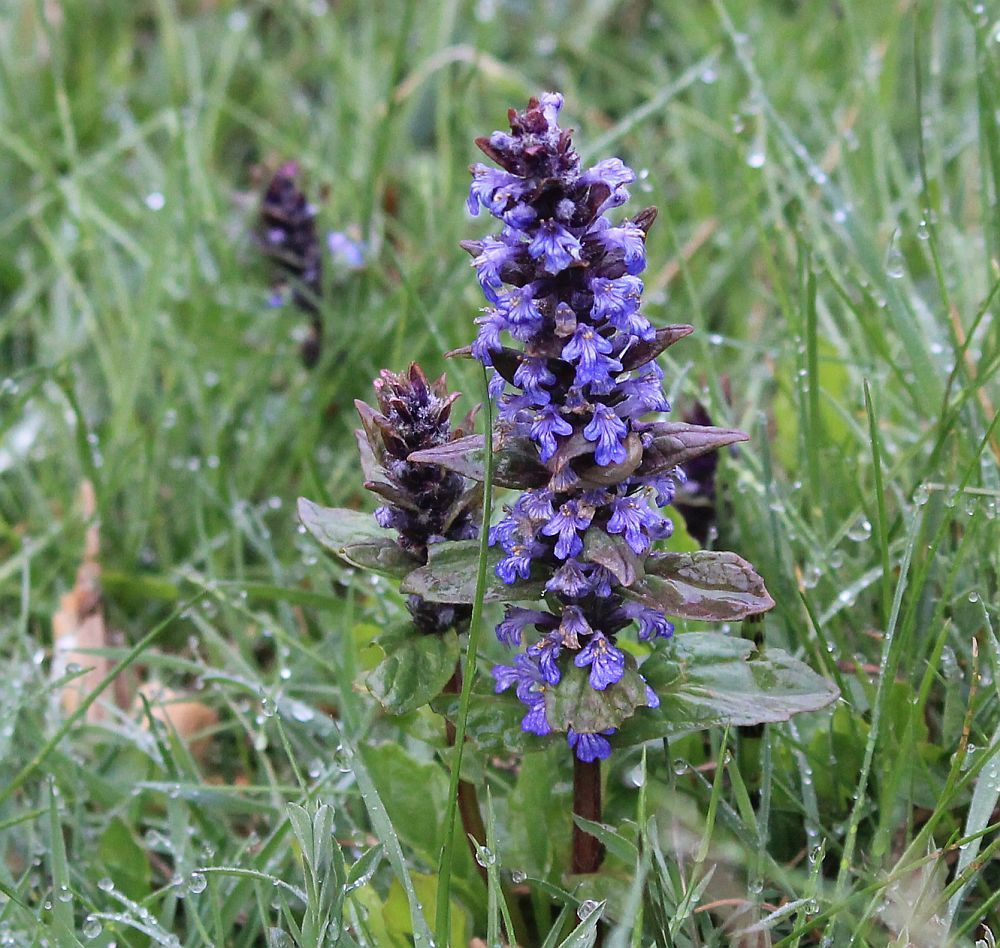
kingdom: Plantae
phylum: Tracheophyta
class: Magnoliopsida
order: Lamiales
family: Lamiaceae
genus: Ajuga
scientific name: Ajuga reptans
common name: Bugle
